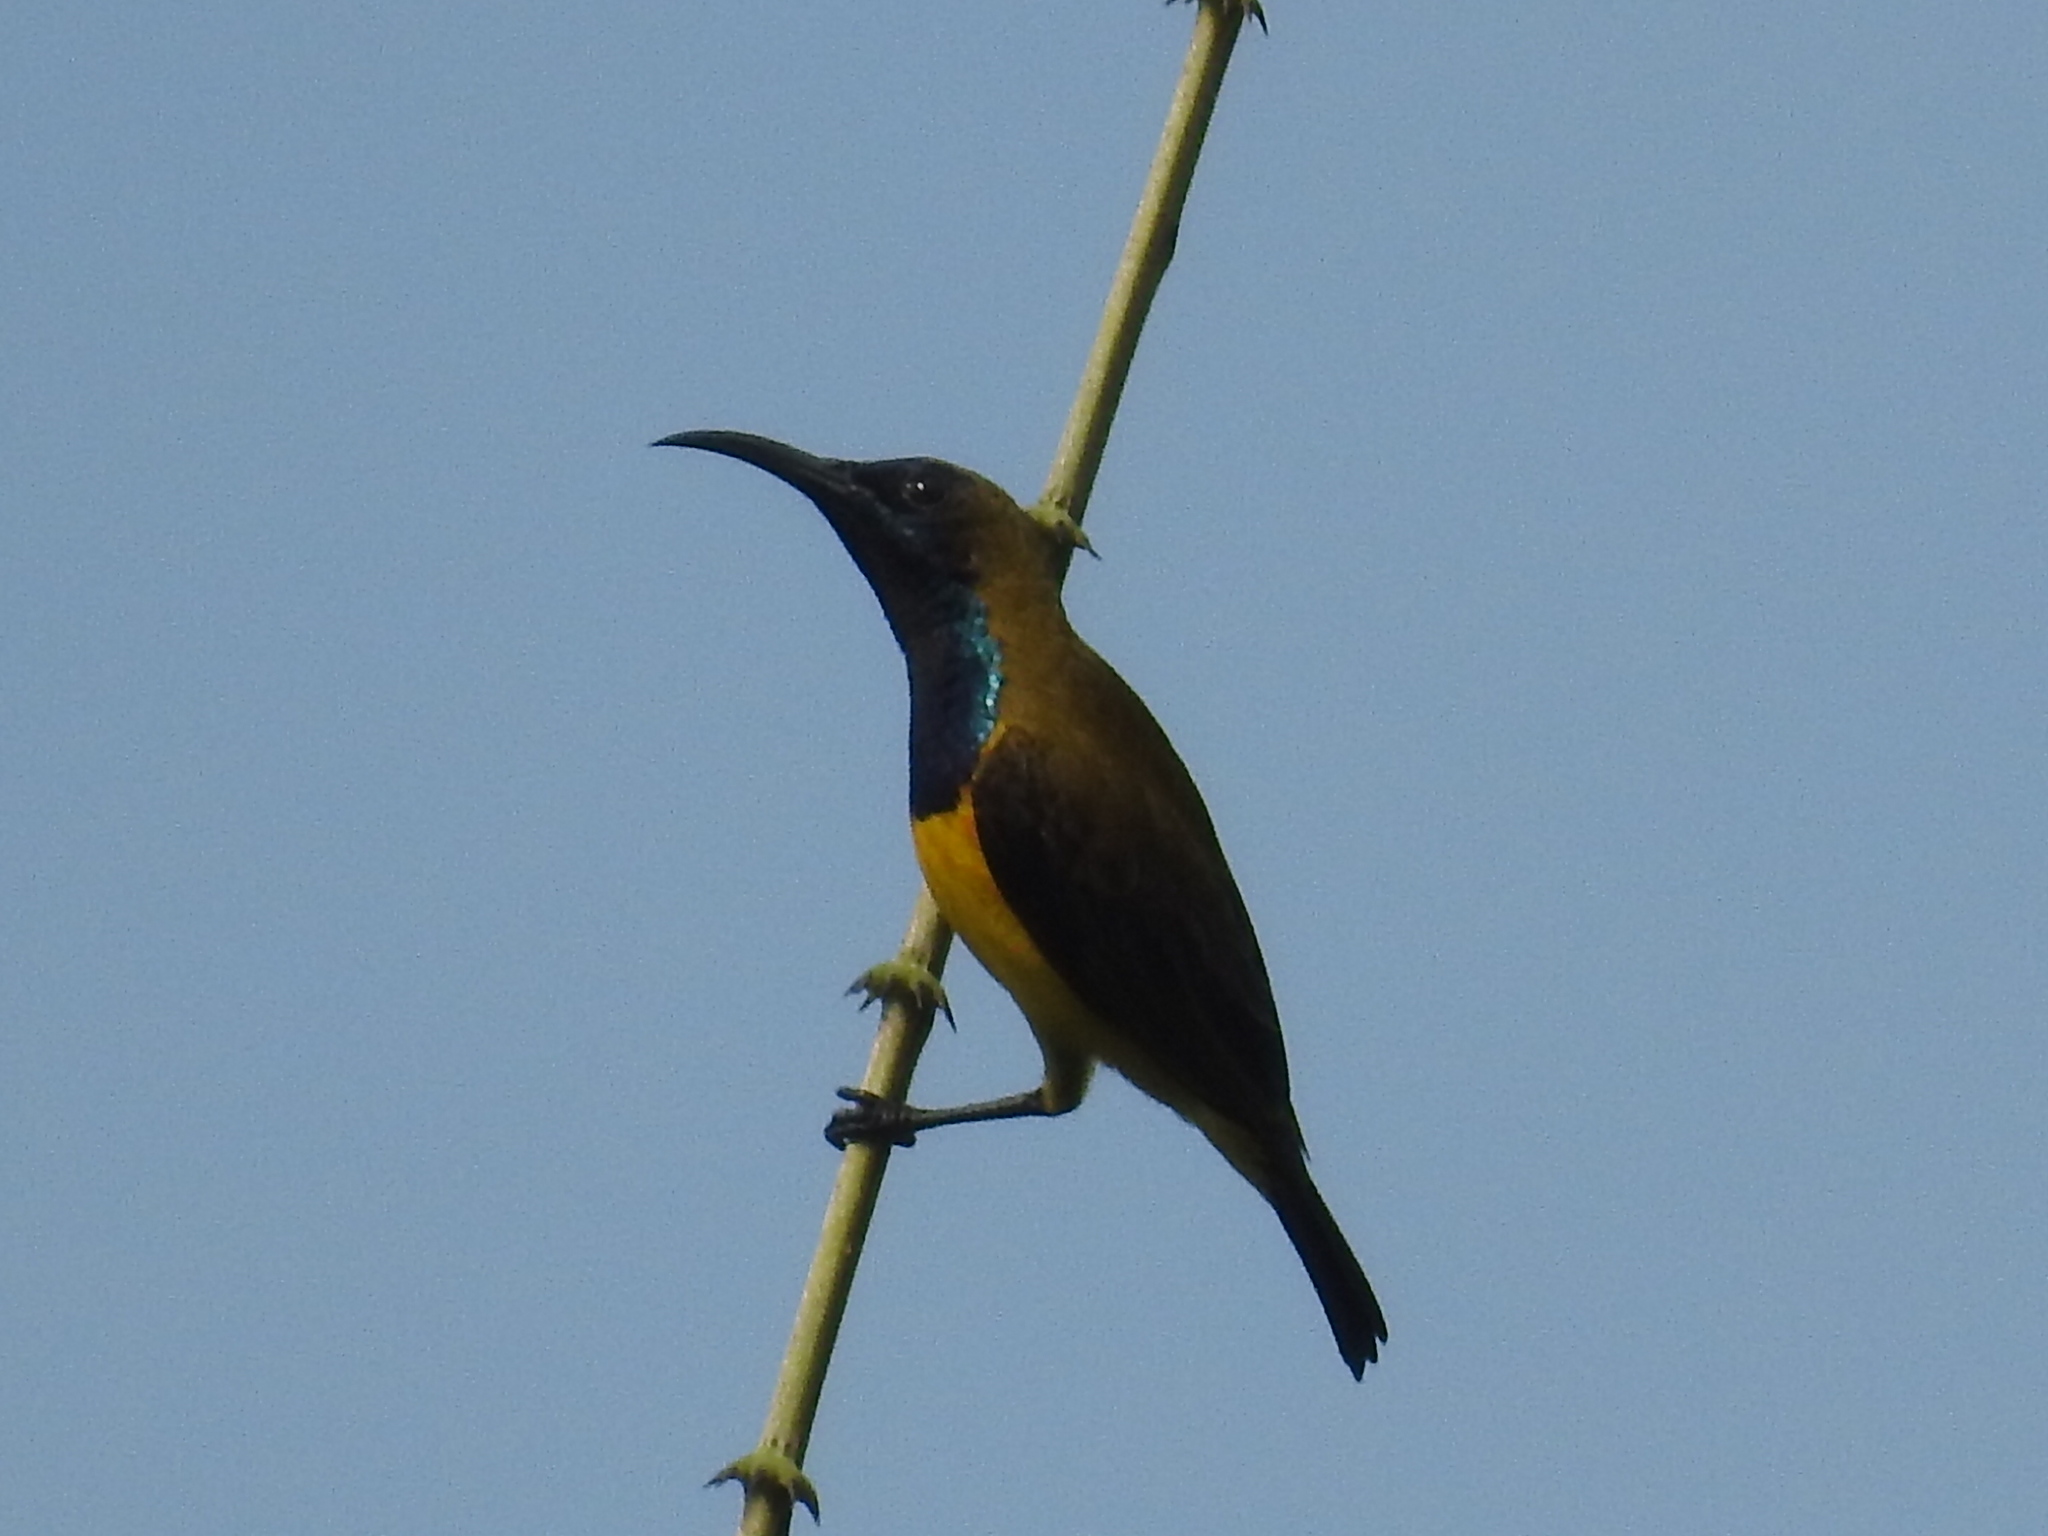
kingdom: Animalia
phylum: Chordata
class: Aves
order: Passeriformes
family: Nectariniidae
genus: Cinnyris
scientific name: Cinnyris
